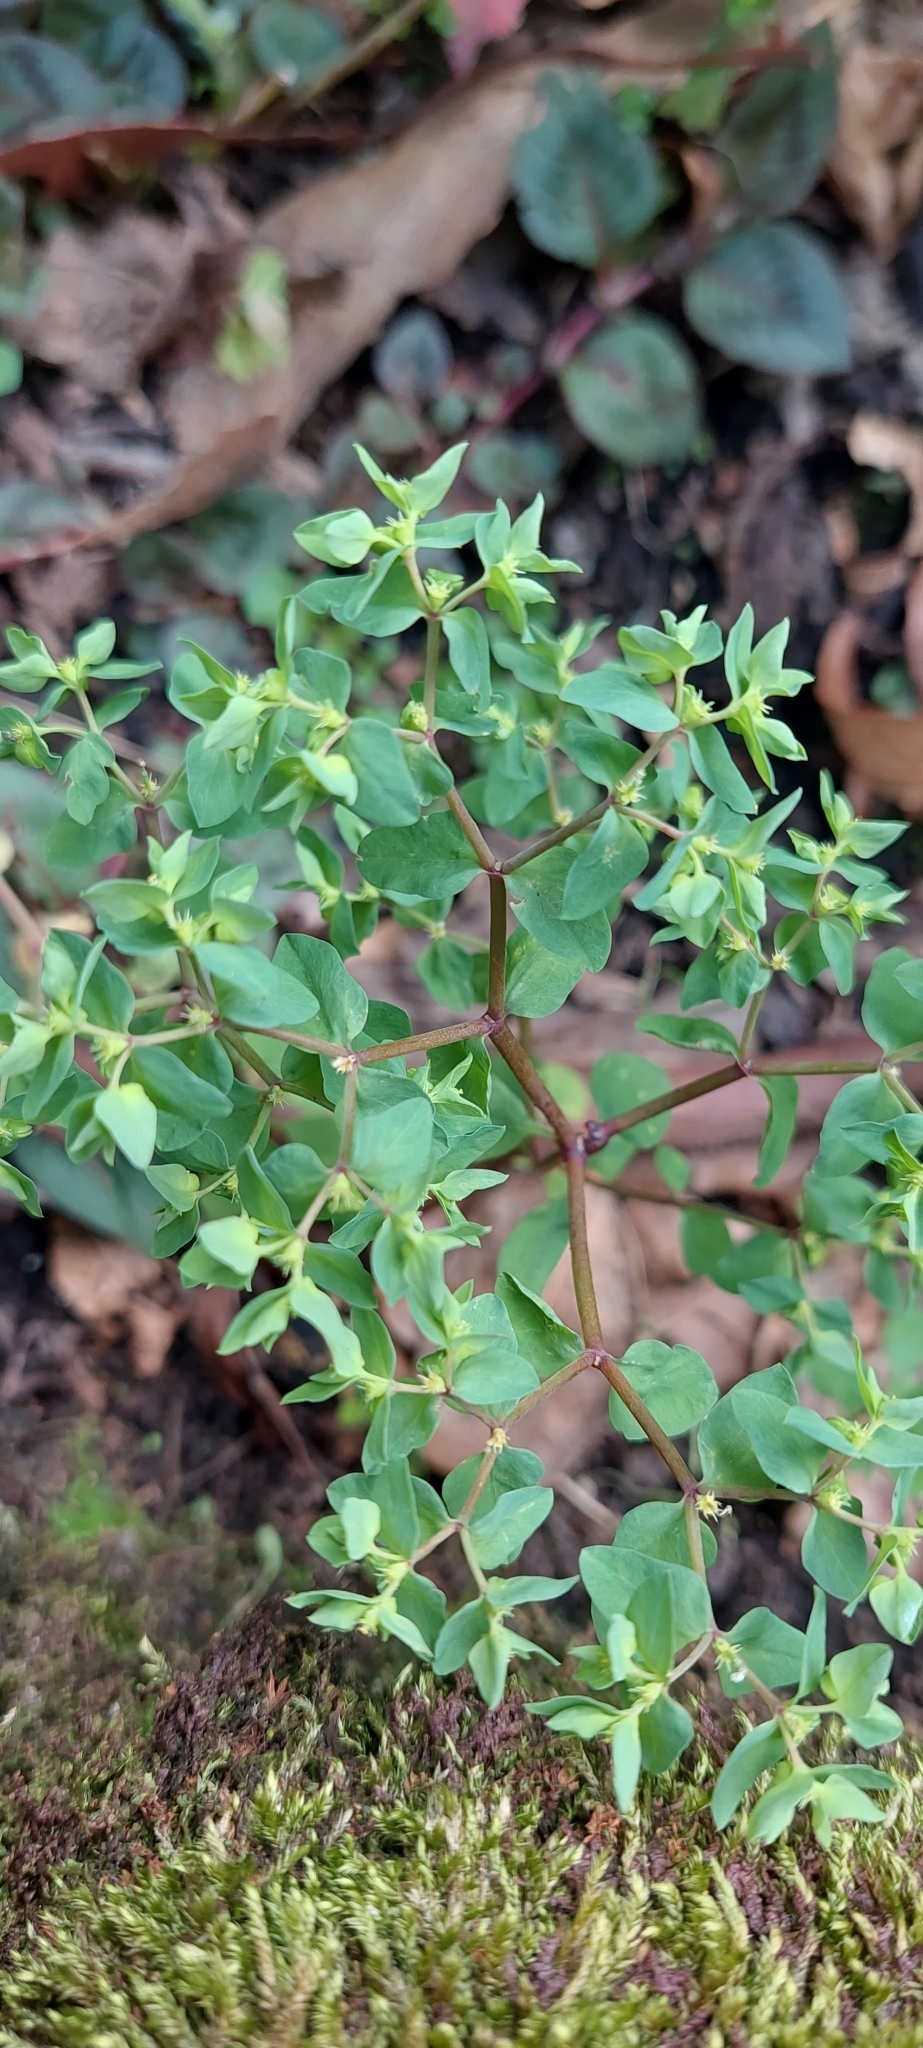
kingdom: Plantae
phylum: Tracheophyta
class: Magnoliopsida
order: Malpighiales
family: Euphorbiaceae
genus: Euphorbia
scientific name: Euphorbia peplus
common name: Petty spurge
